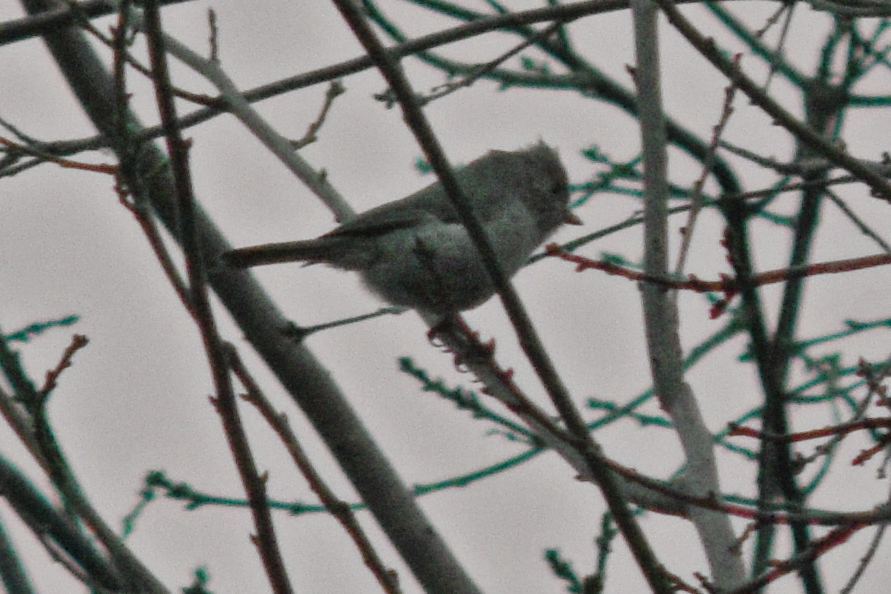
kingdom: Animalia
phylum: Chordata
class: Aves
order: Passeriformes
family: Paridae
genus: Baeolophus
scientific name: Baeolophus inornatus
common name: Oak titmouse
